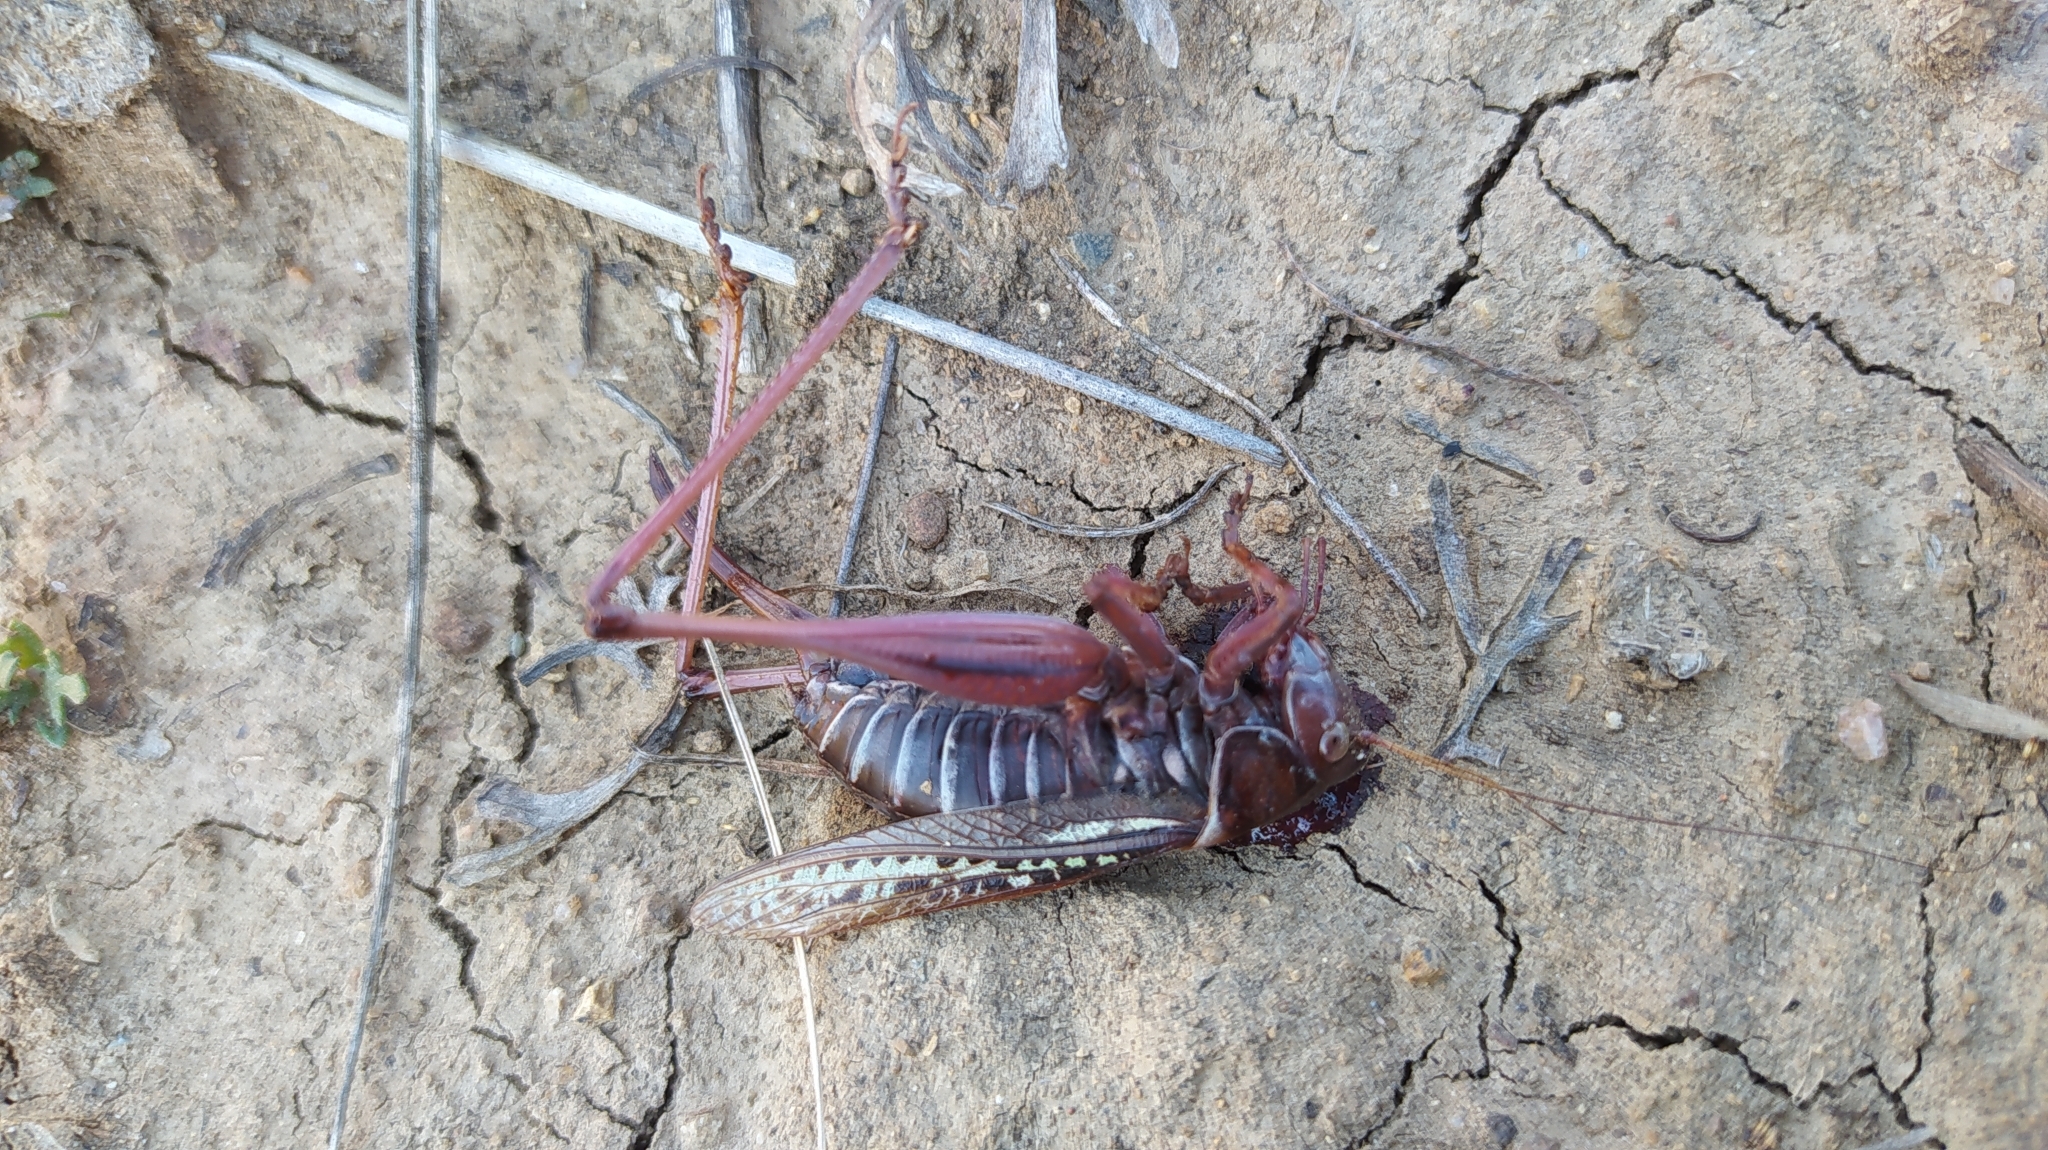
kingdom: Animalia
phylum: Arthropoda
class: Insecta
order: Orthoptera
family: Tettigoniidae
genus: Gampsocleis
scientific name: Gampsocleis sedakovii
